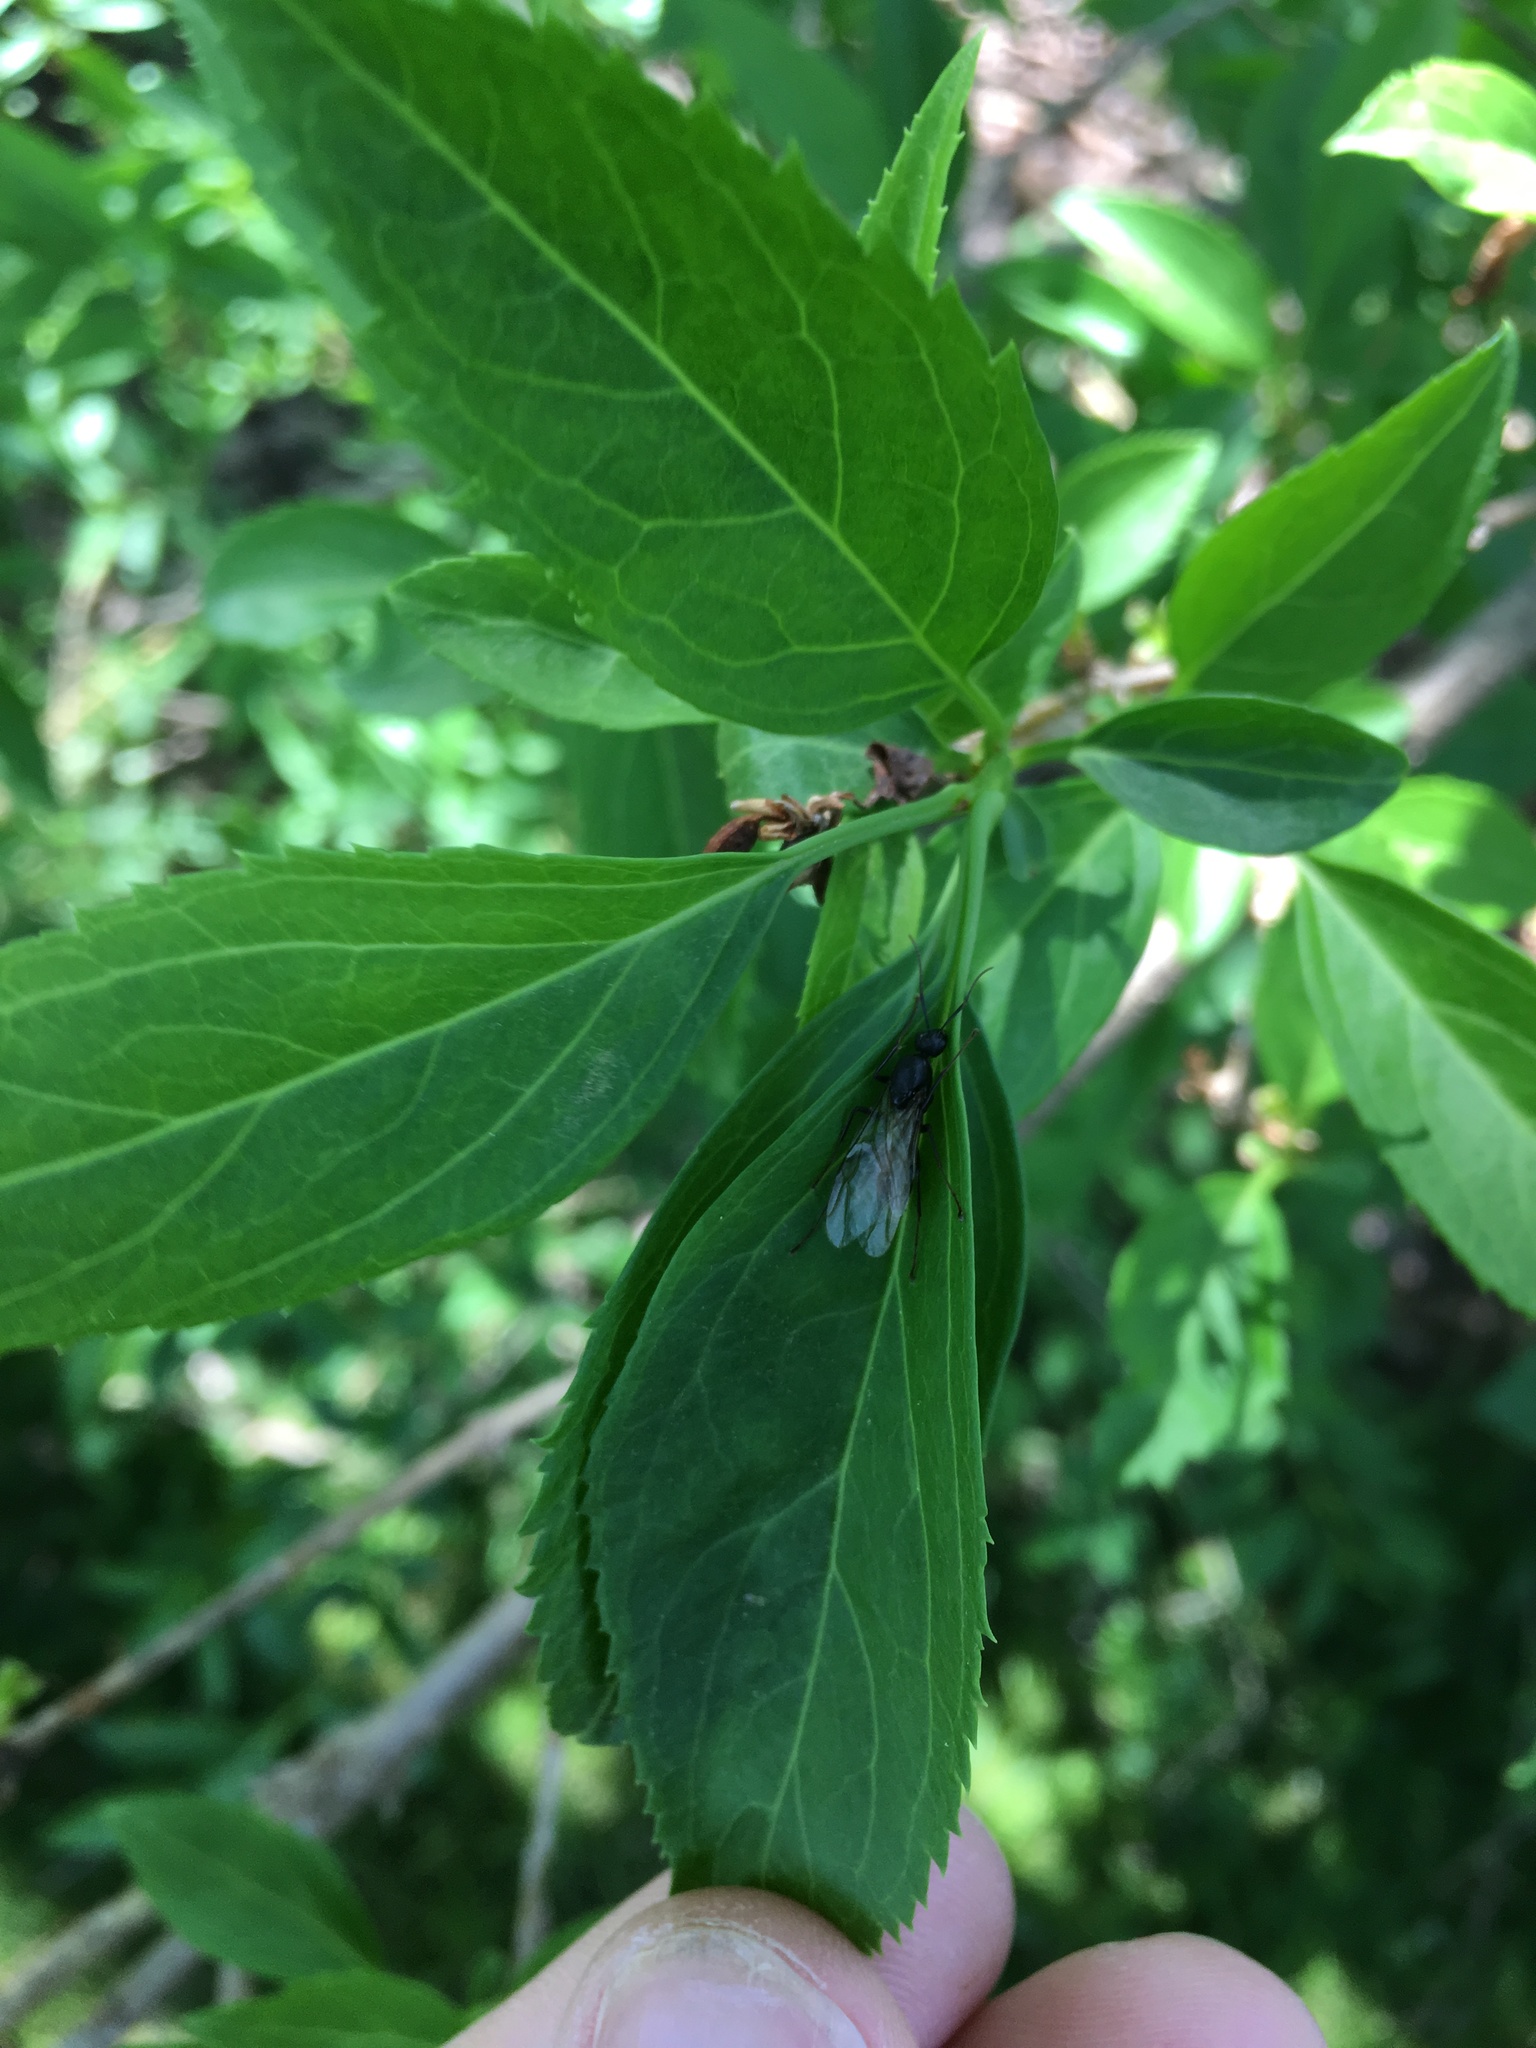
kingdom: Animalia
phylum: Arthropoda
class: Insecta
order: Hymenoptera
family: Formicidae
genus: Camponotus
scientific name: Camponotus pennsylvanicus
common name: Black carpenter ant
